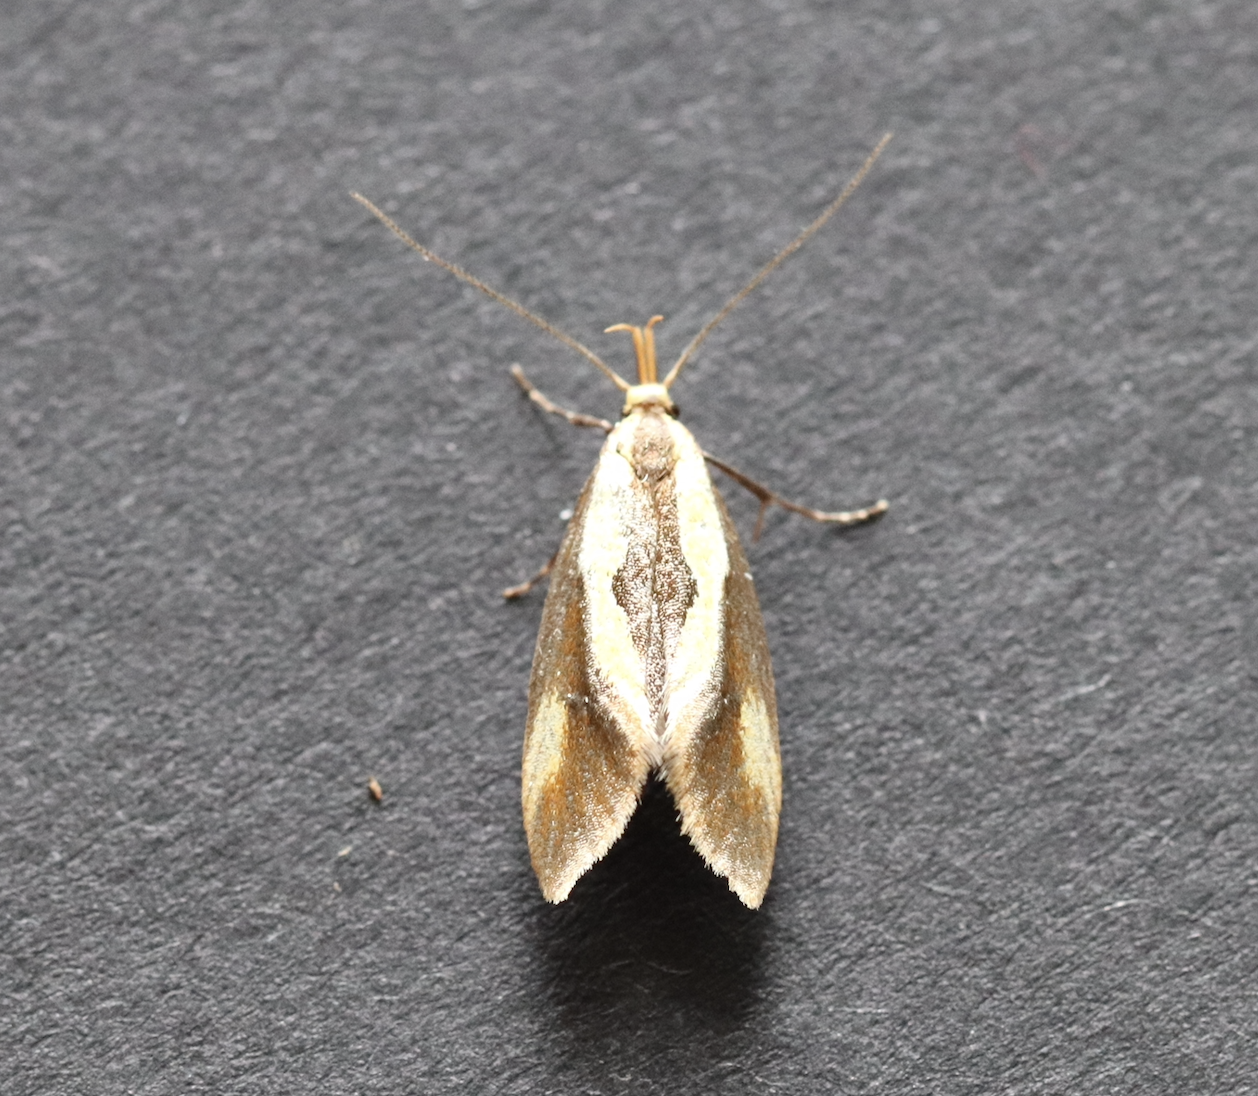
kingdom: Animalia
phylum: Arthropoda
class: Insecta
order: Lepidoptera
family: Oecophoridae
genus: Harpella
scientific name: Harpella forficella
